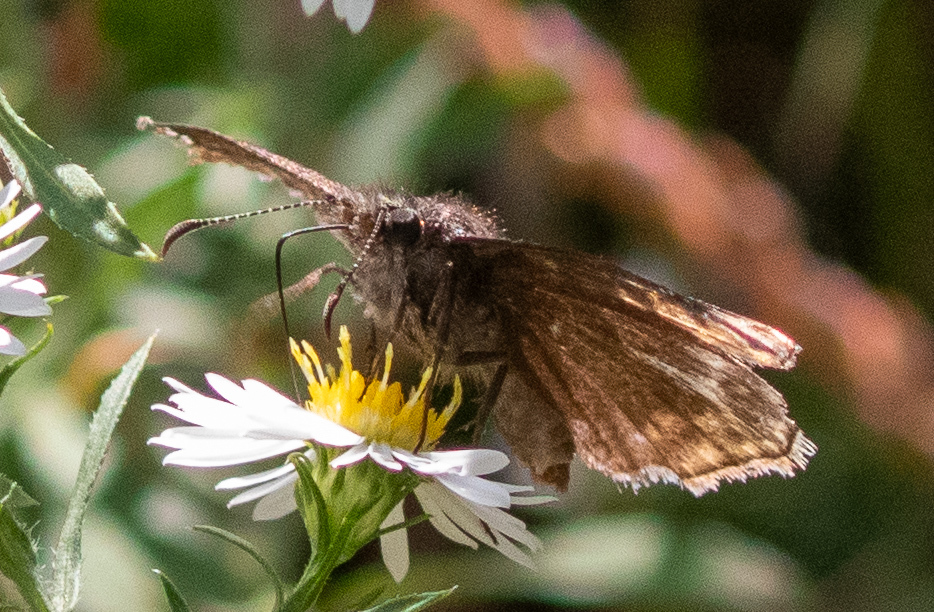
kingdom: Animalia
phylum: Arthropoda
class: Insecta
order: Lepidoptera
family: Hesperiidae
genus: Erynnis
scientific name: Erynnis baptisiae
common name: Wild indigo duskywing
